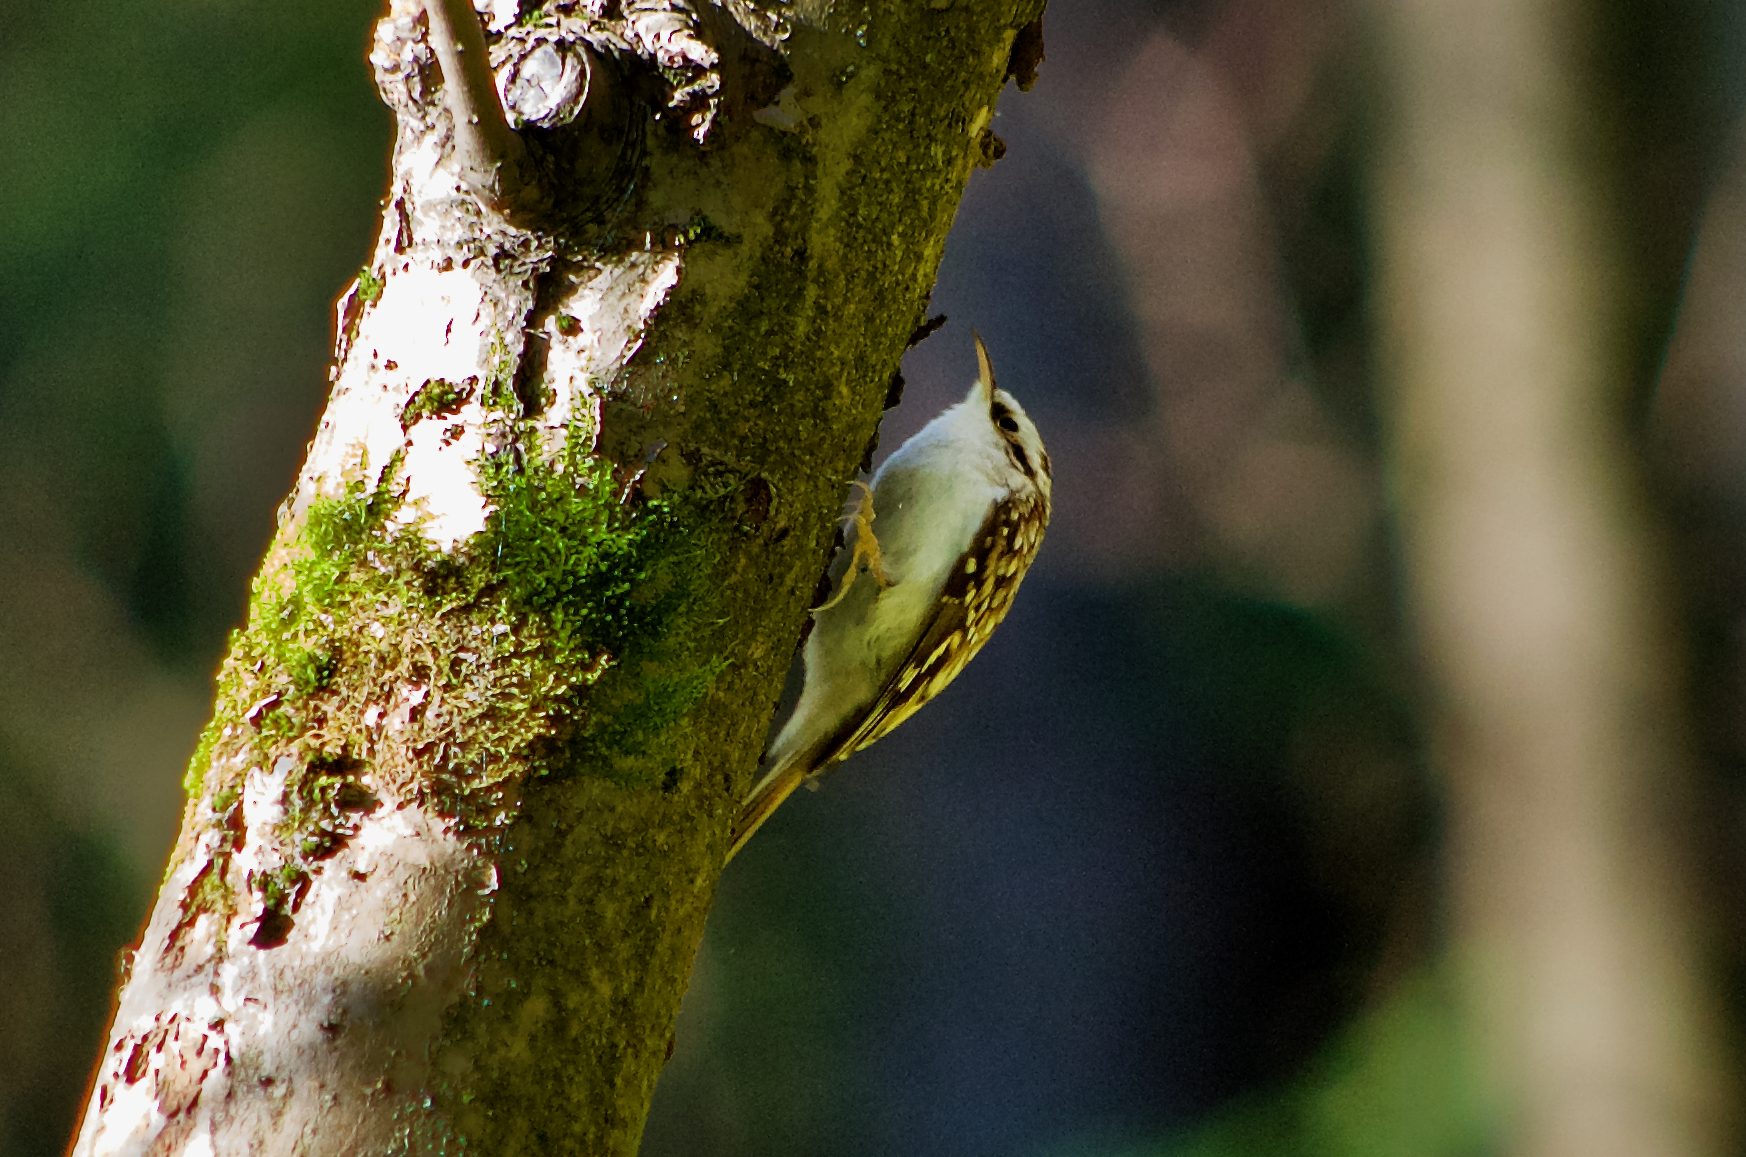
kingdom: Animalia
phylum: Chordata
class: Aves
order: Passeriformes
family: Certhiidae
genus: Certhia
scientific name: Certhia familiaris
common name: Eurasian treecreeper
